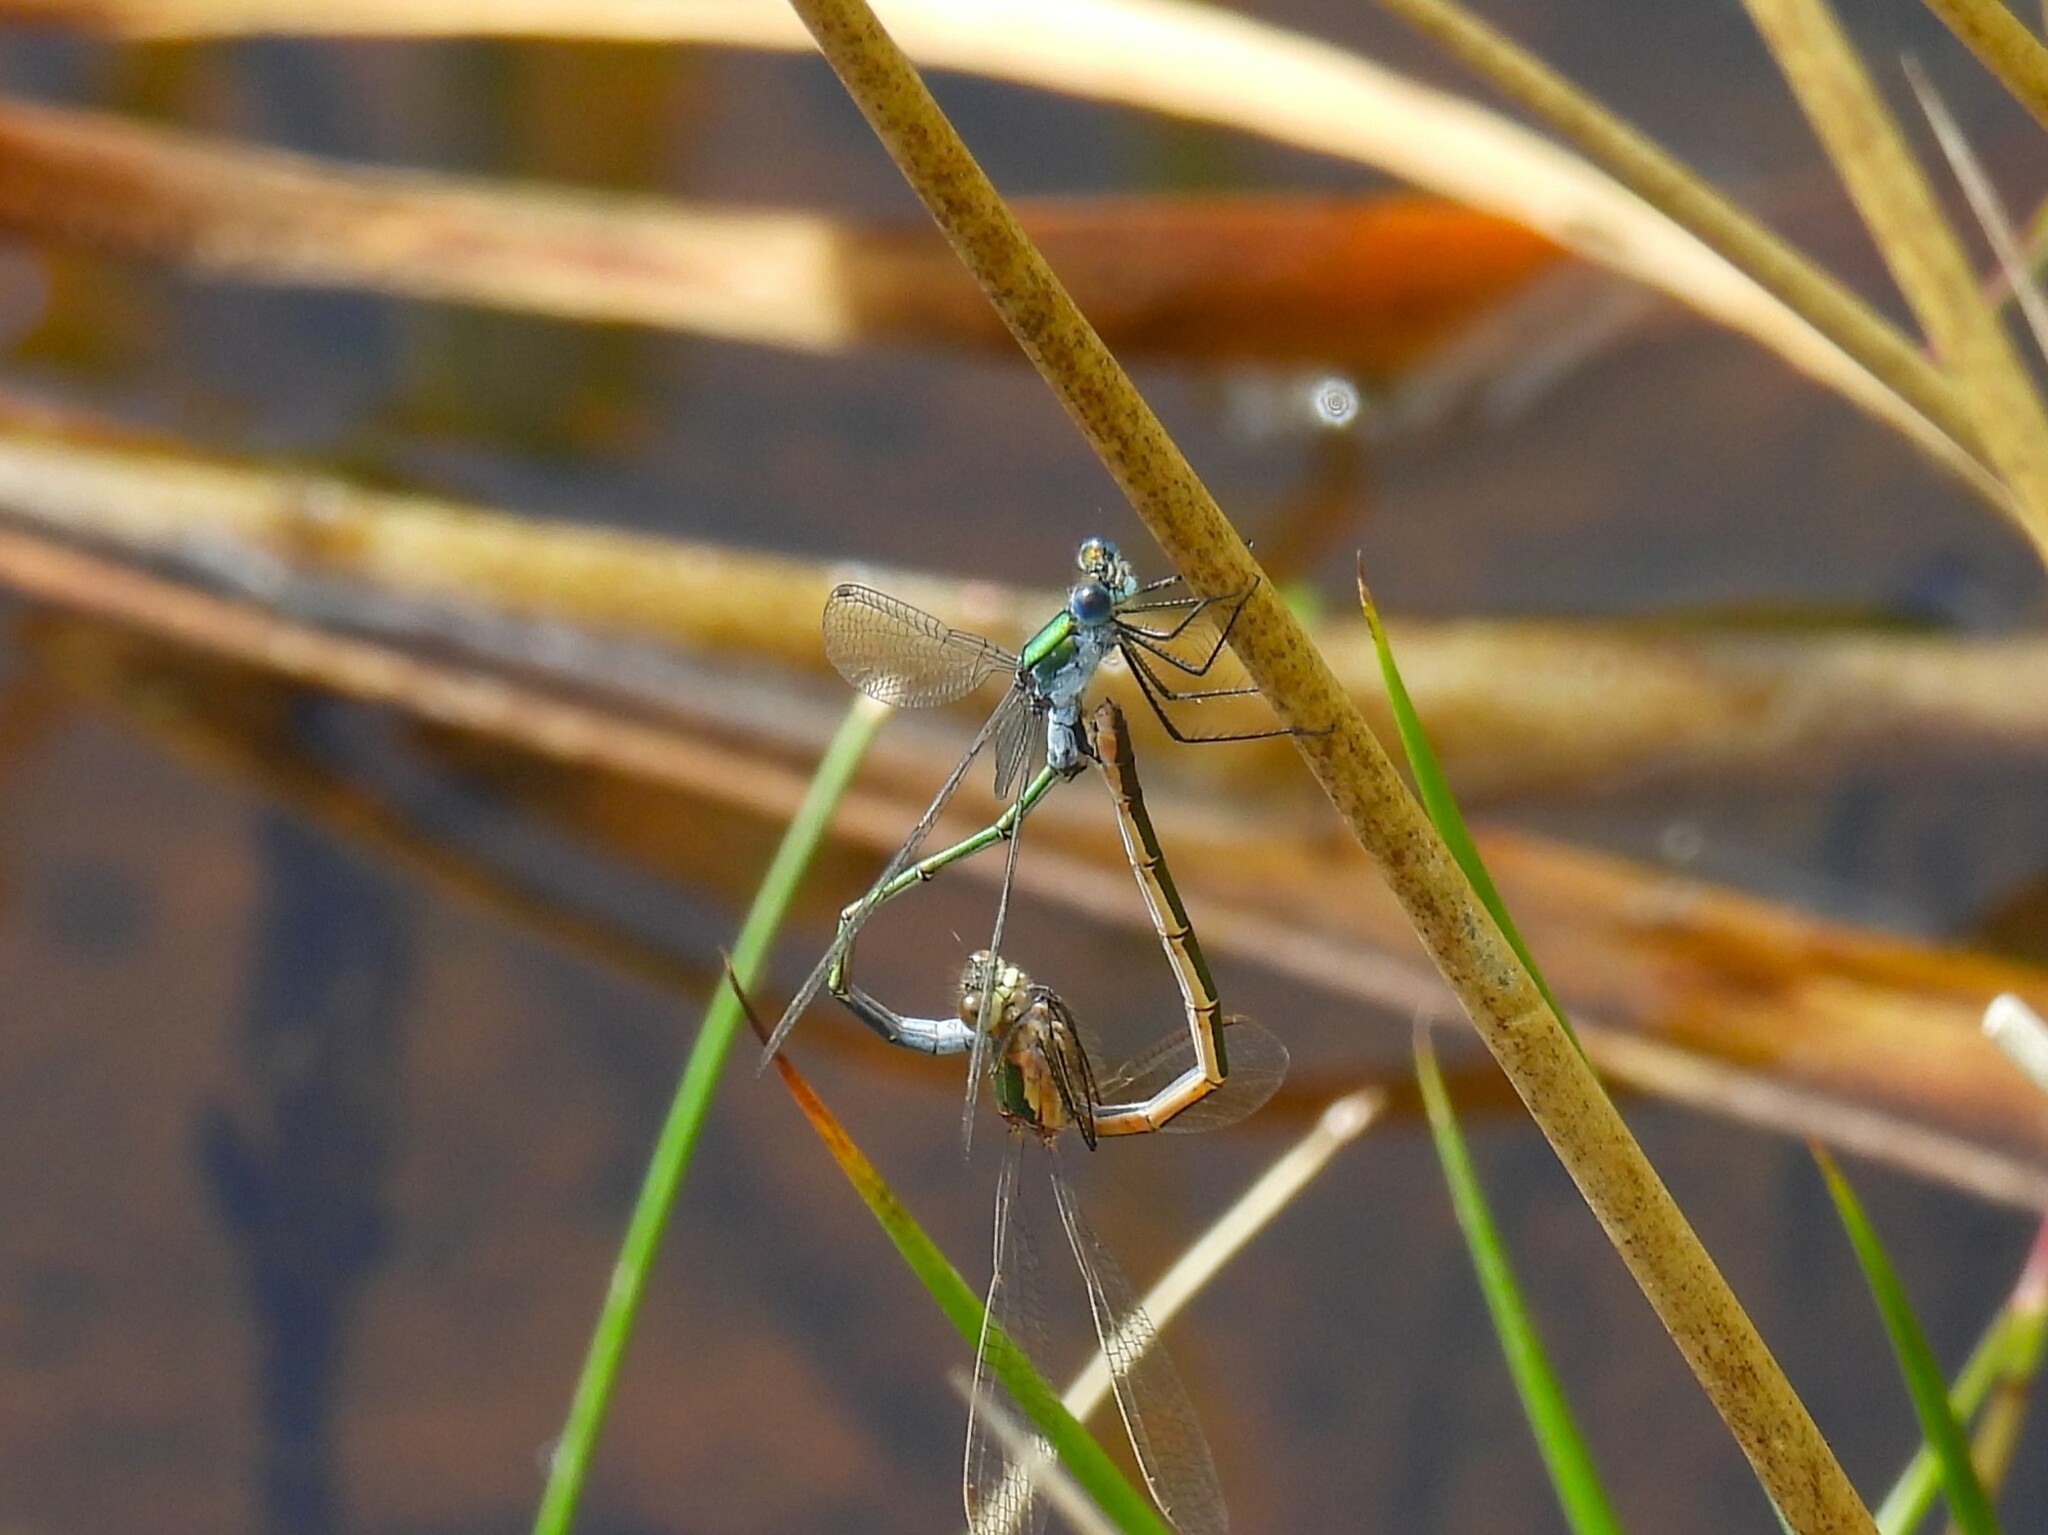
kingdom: Animalia
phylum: Arthropoda
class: Insecta
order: Odonata
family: Lestidae
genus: Lestes
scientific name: Lestes sponsa
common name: Common spreadwing
